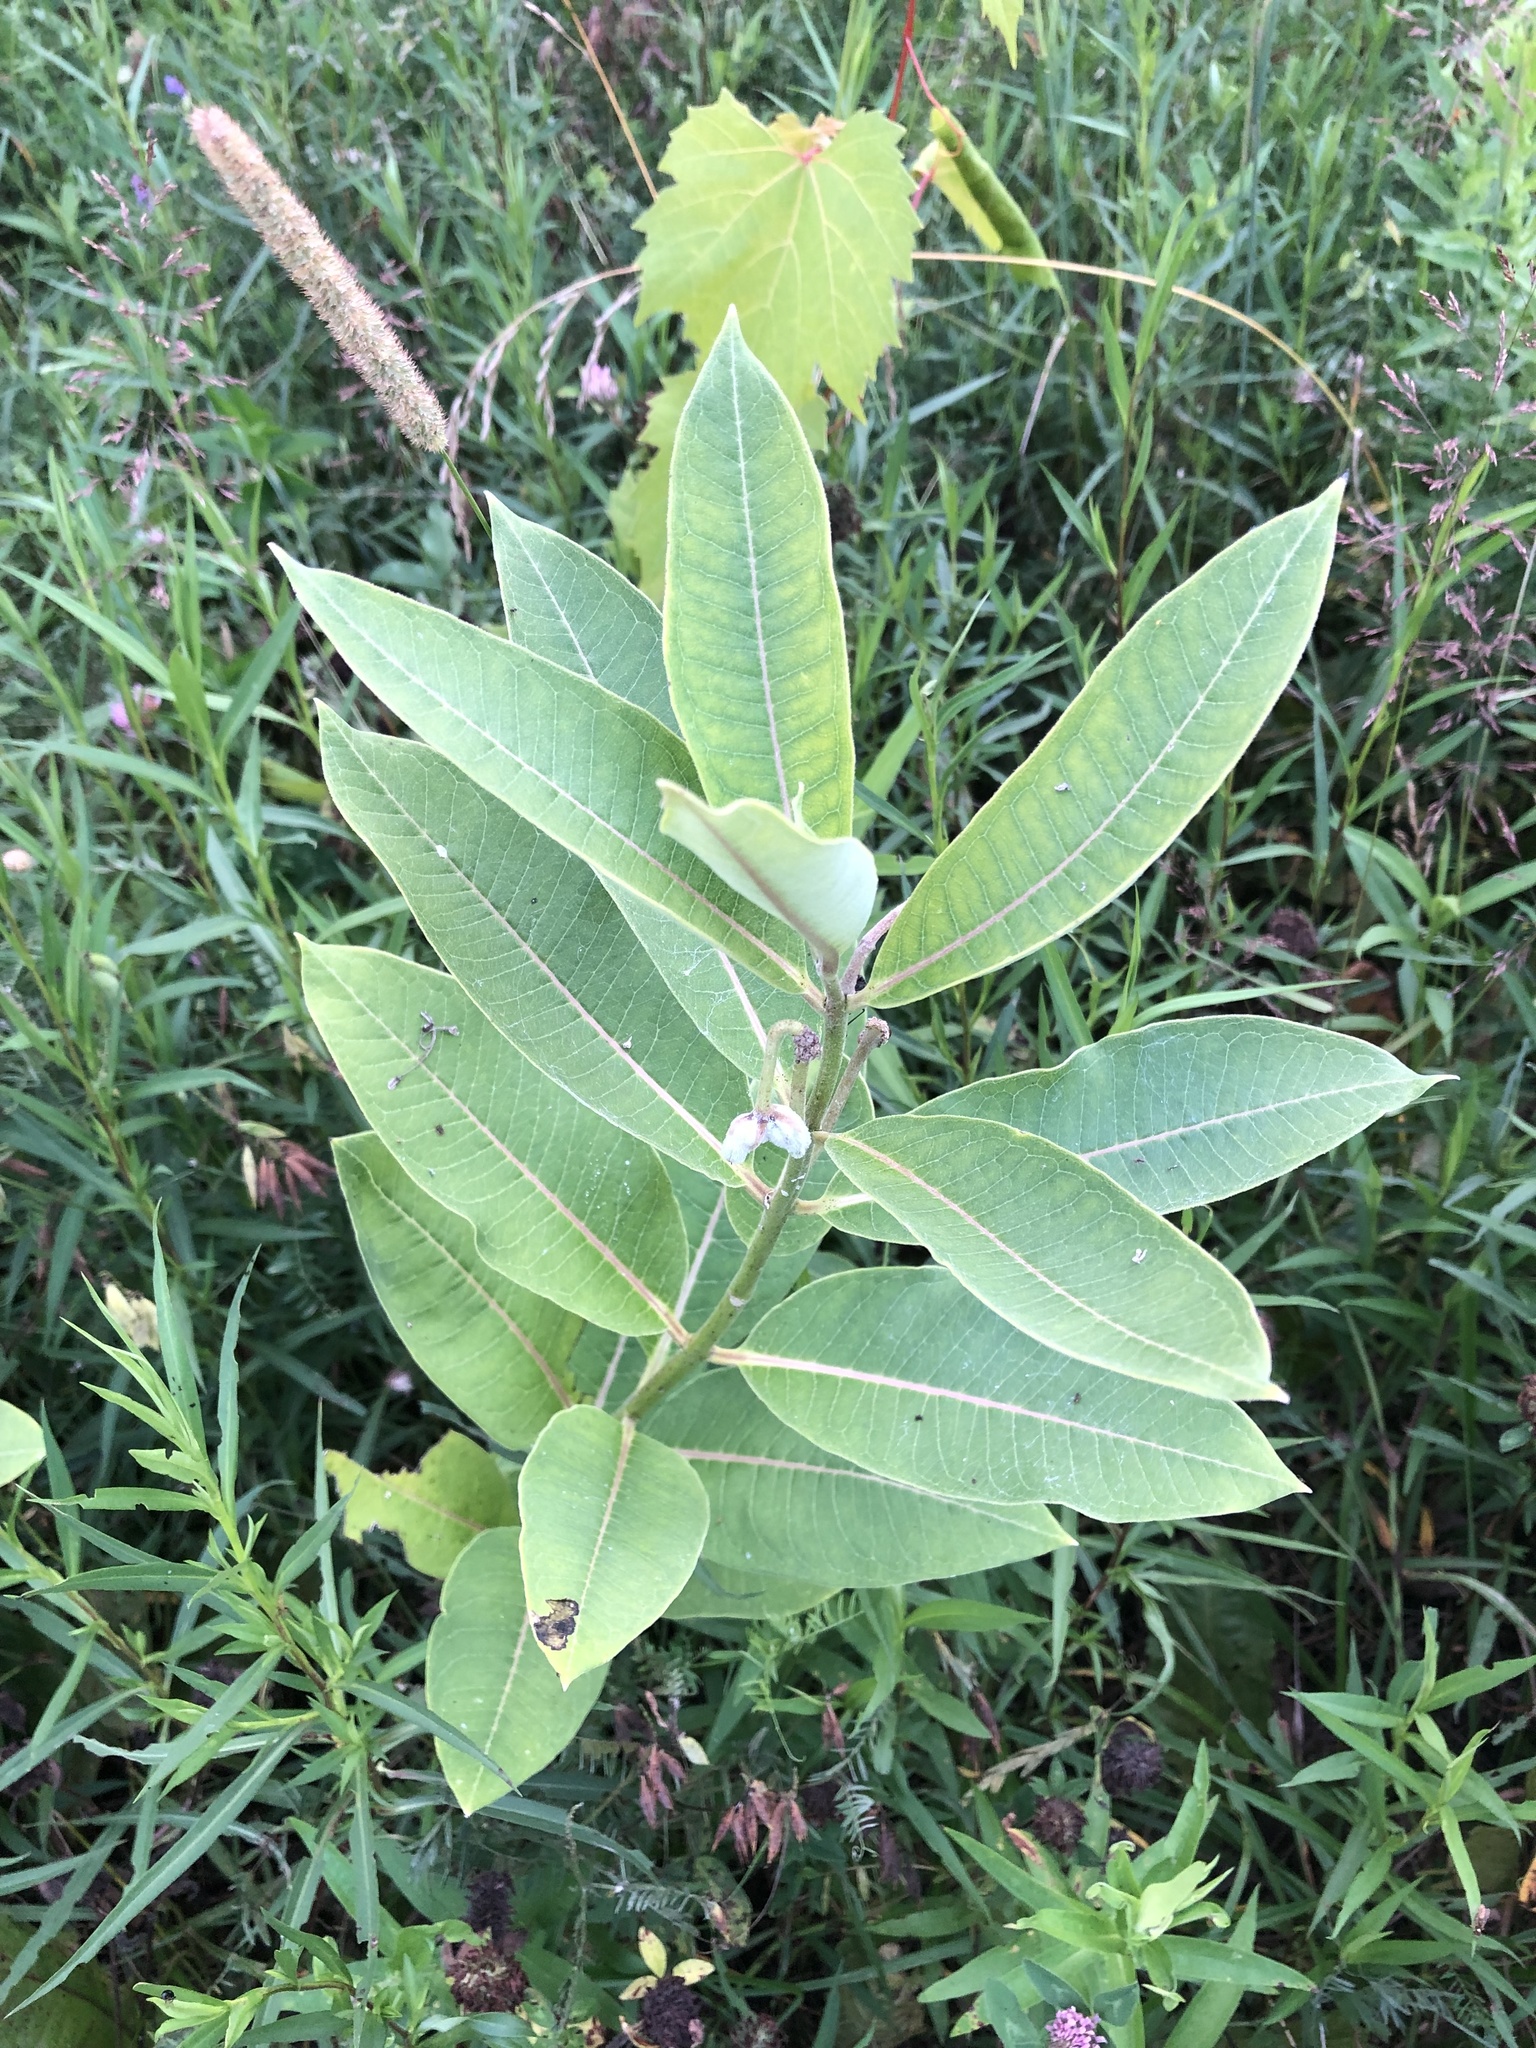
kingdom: Plantae
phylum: Tracheophyta
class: Magnoliopsida
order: Gentianales
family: Apocynaceae
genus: Asclepias
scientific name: Asclepias syriaca
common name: Common milkweed
